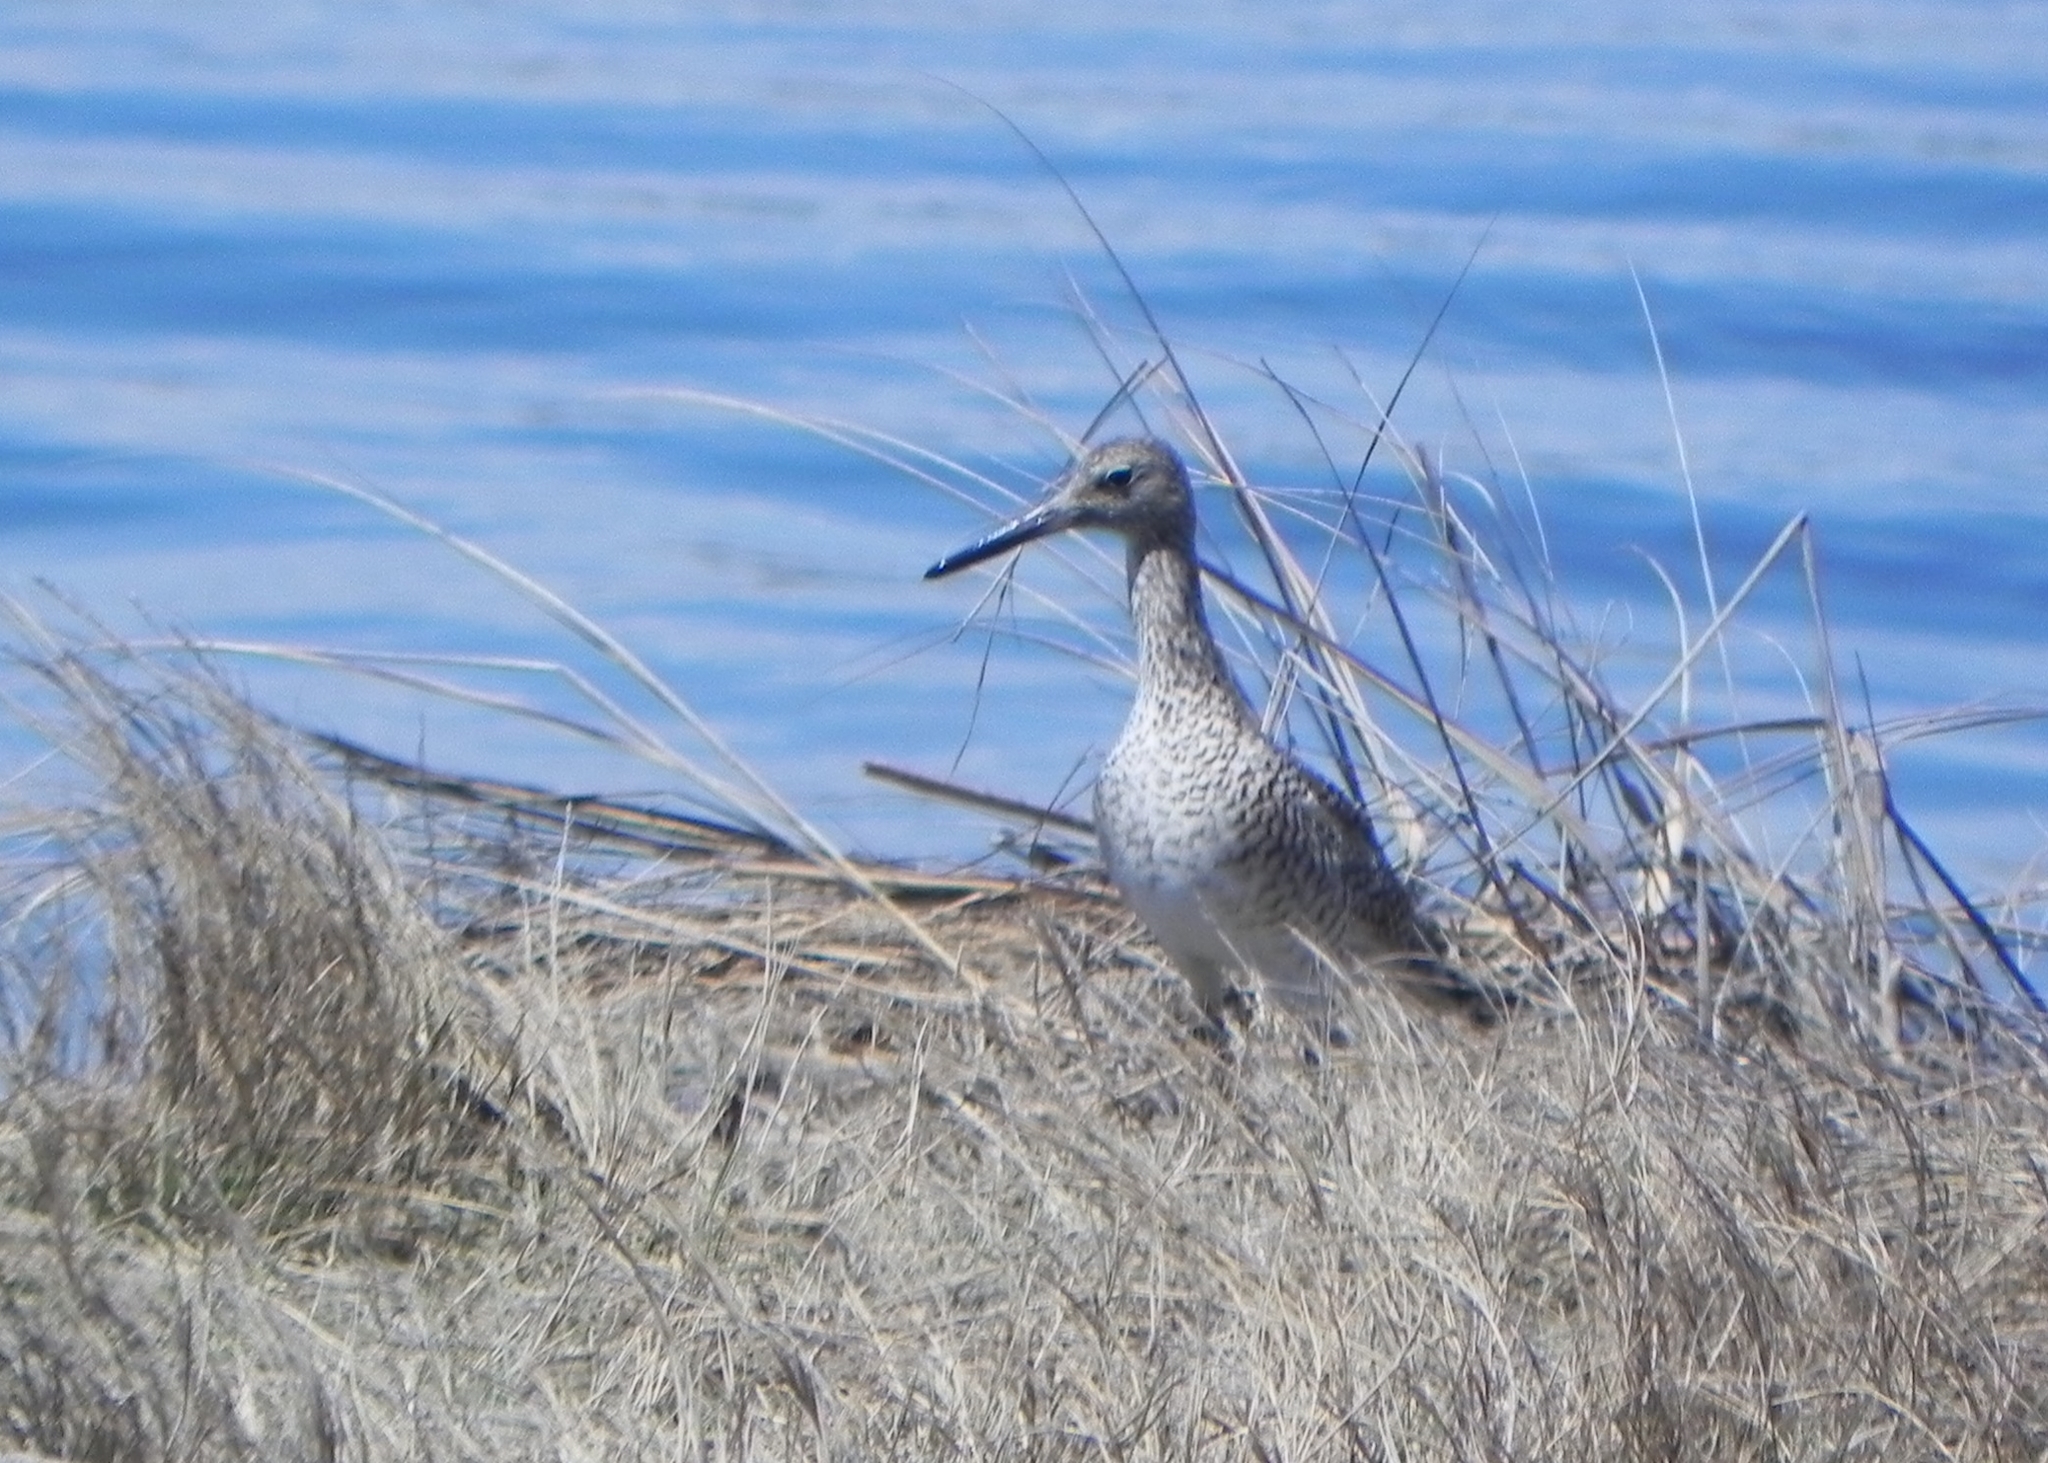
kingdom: Animalia
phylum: Chordata
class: Aves
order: Charadriiformes
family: Scolopacidae
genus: Tringa
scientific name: Tringa semipalmata
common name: Willet
